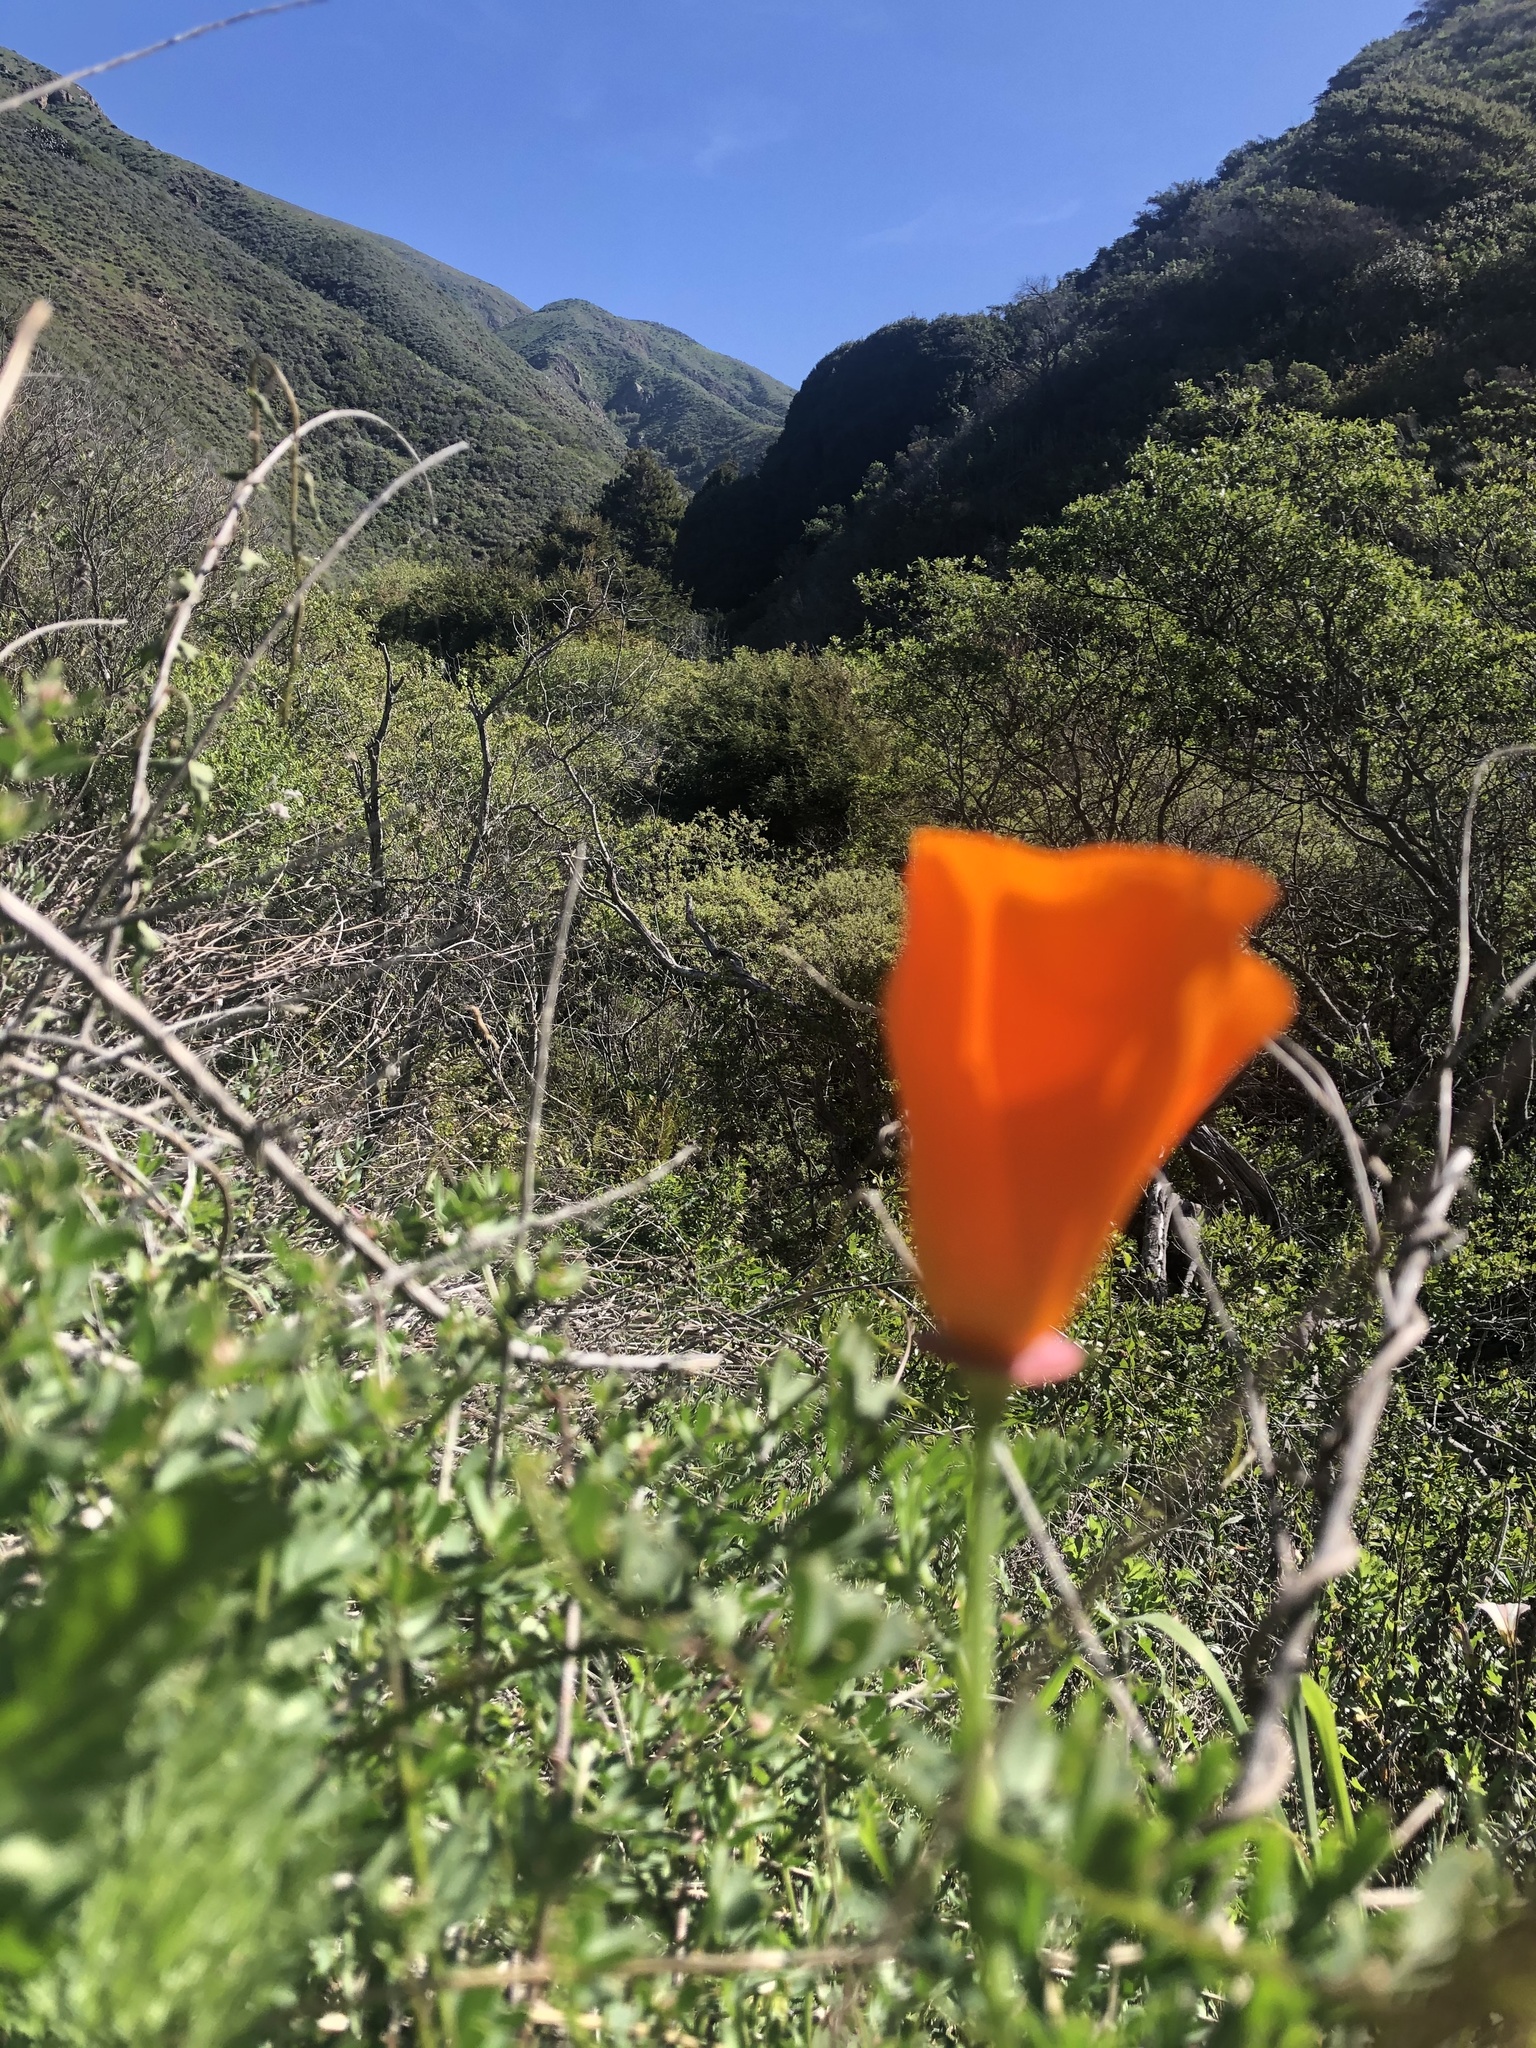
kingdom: Plantae
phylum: Tracheophyta
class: Magnoliopsida
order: Ranunculales
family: Papaveraceae
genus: Eschscholzia
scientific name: Eschscholzia californica
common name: California poppy
